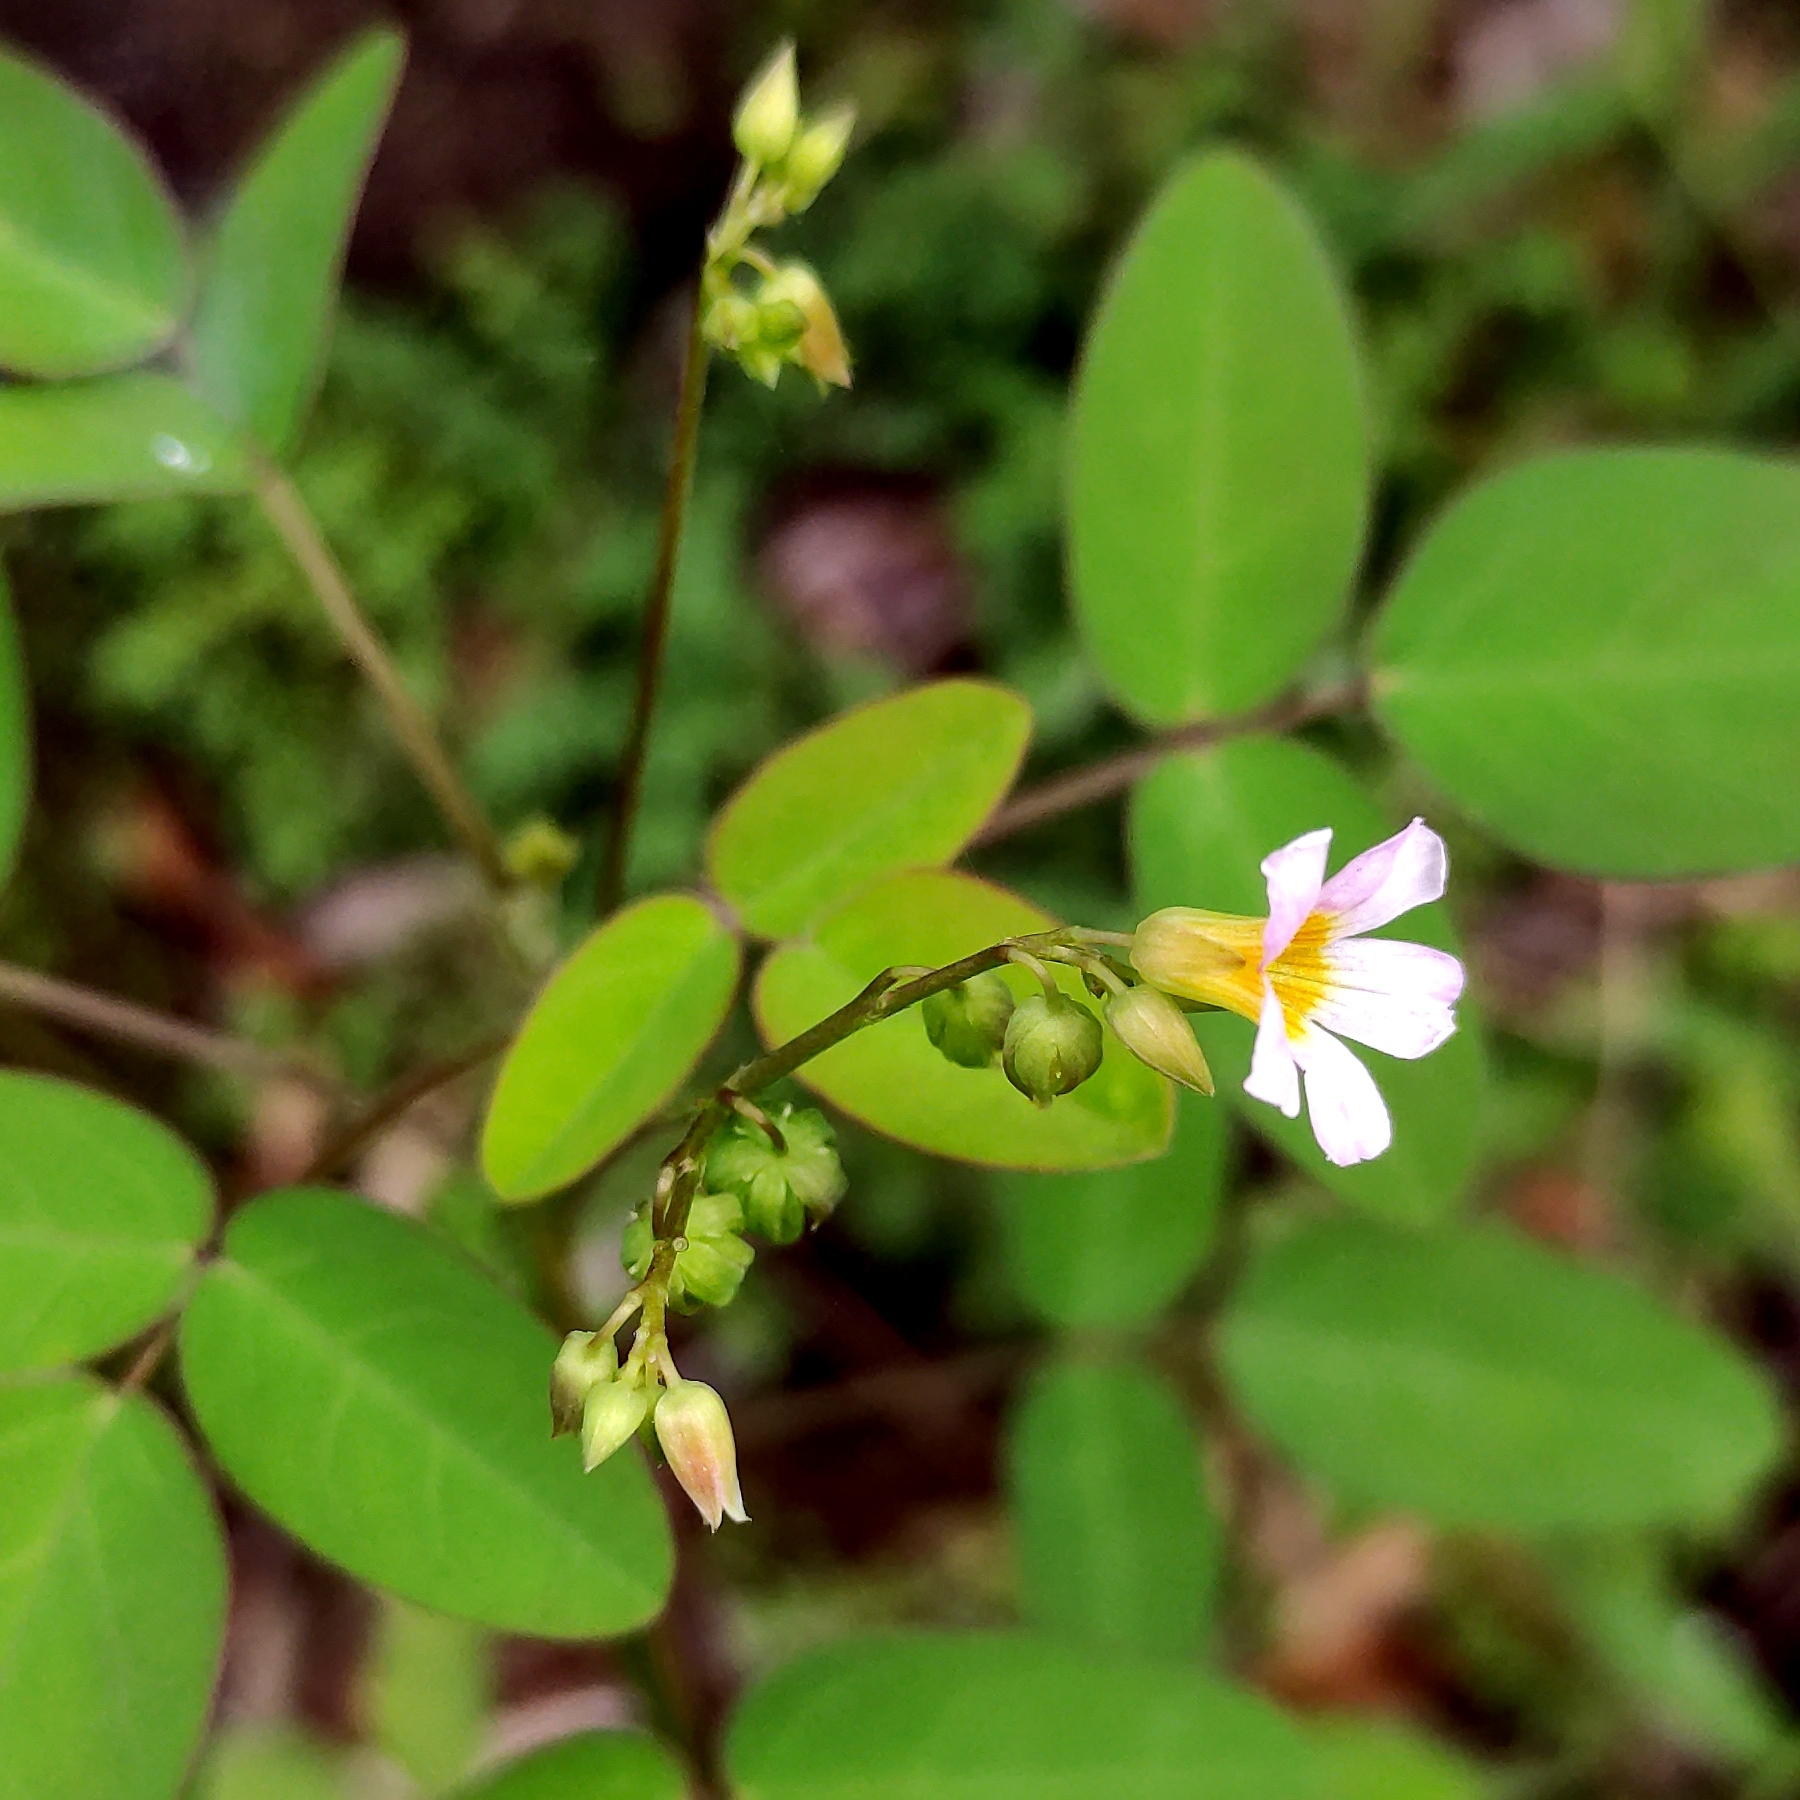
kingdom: Plantae
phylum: Tracheophyta
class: Magnoliopsida
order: Oxalidales
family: Oxalidaceae
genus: Oxalis
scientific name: Oxalis barrelieri
